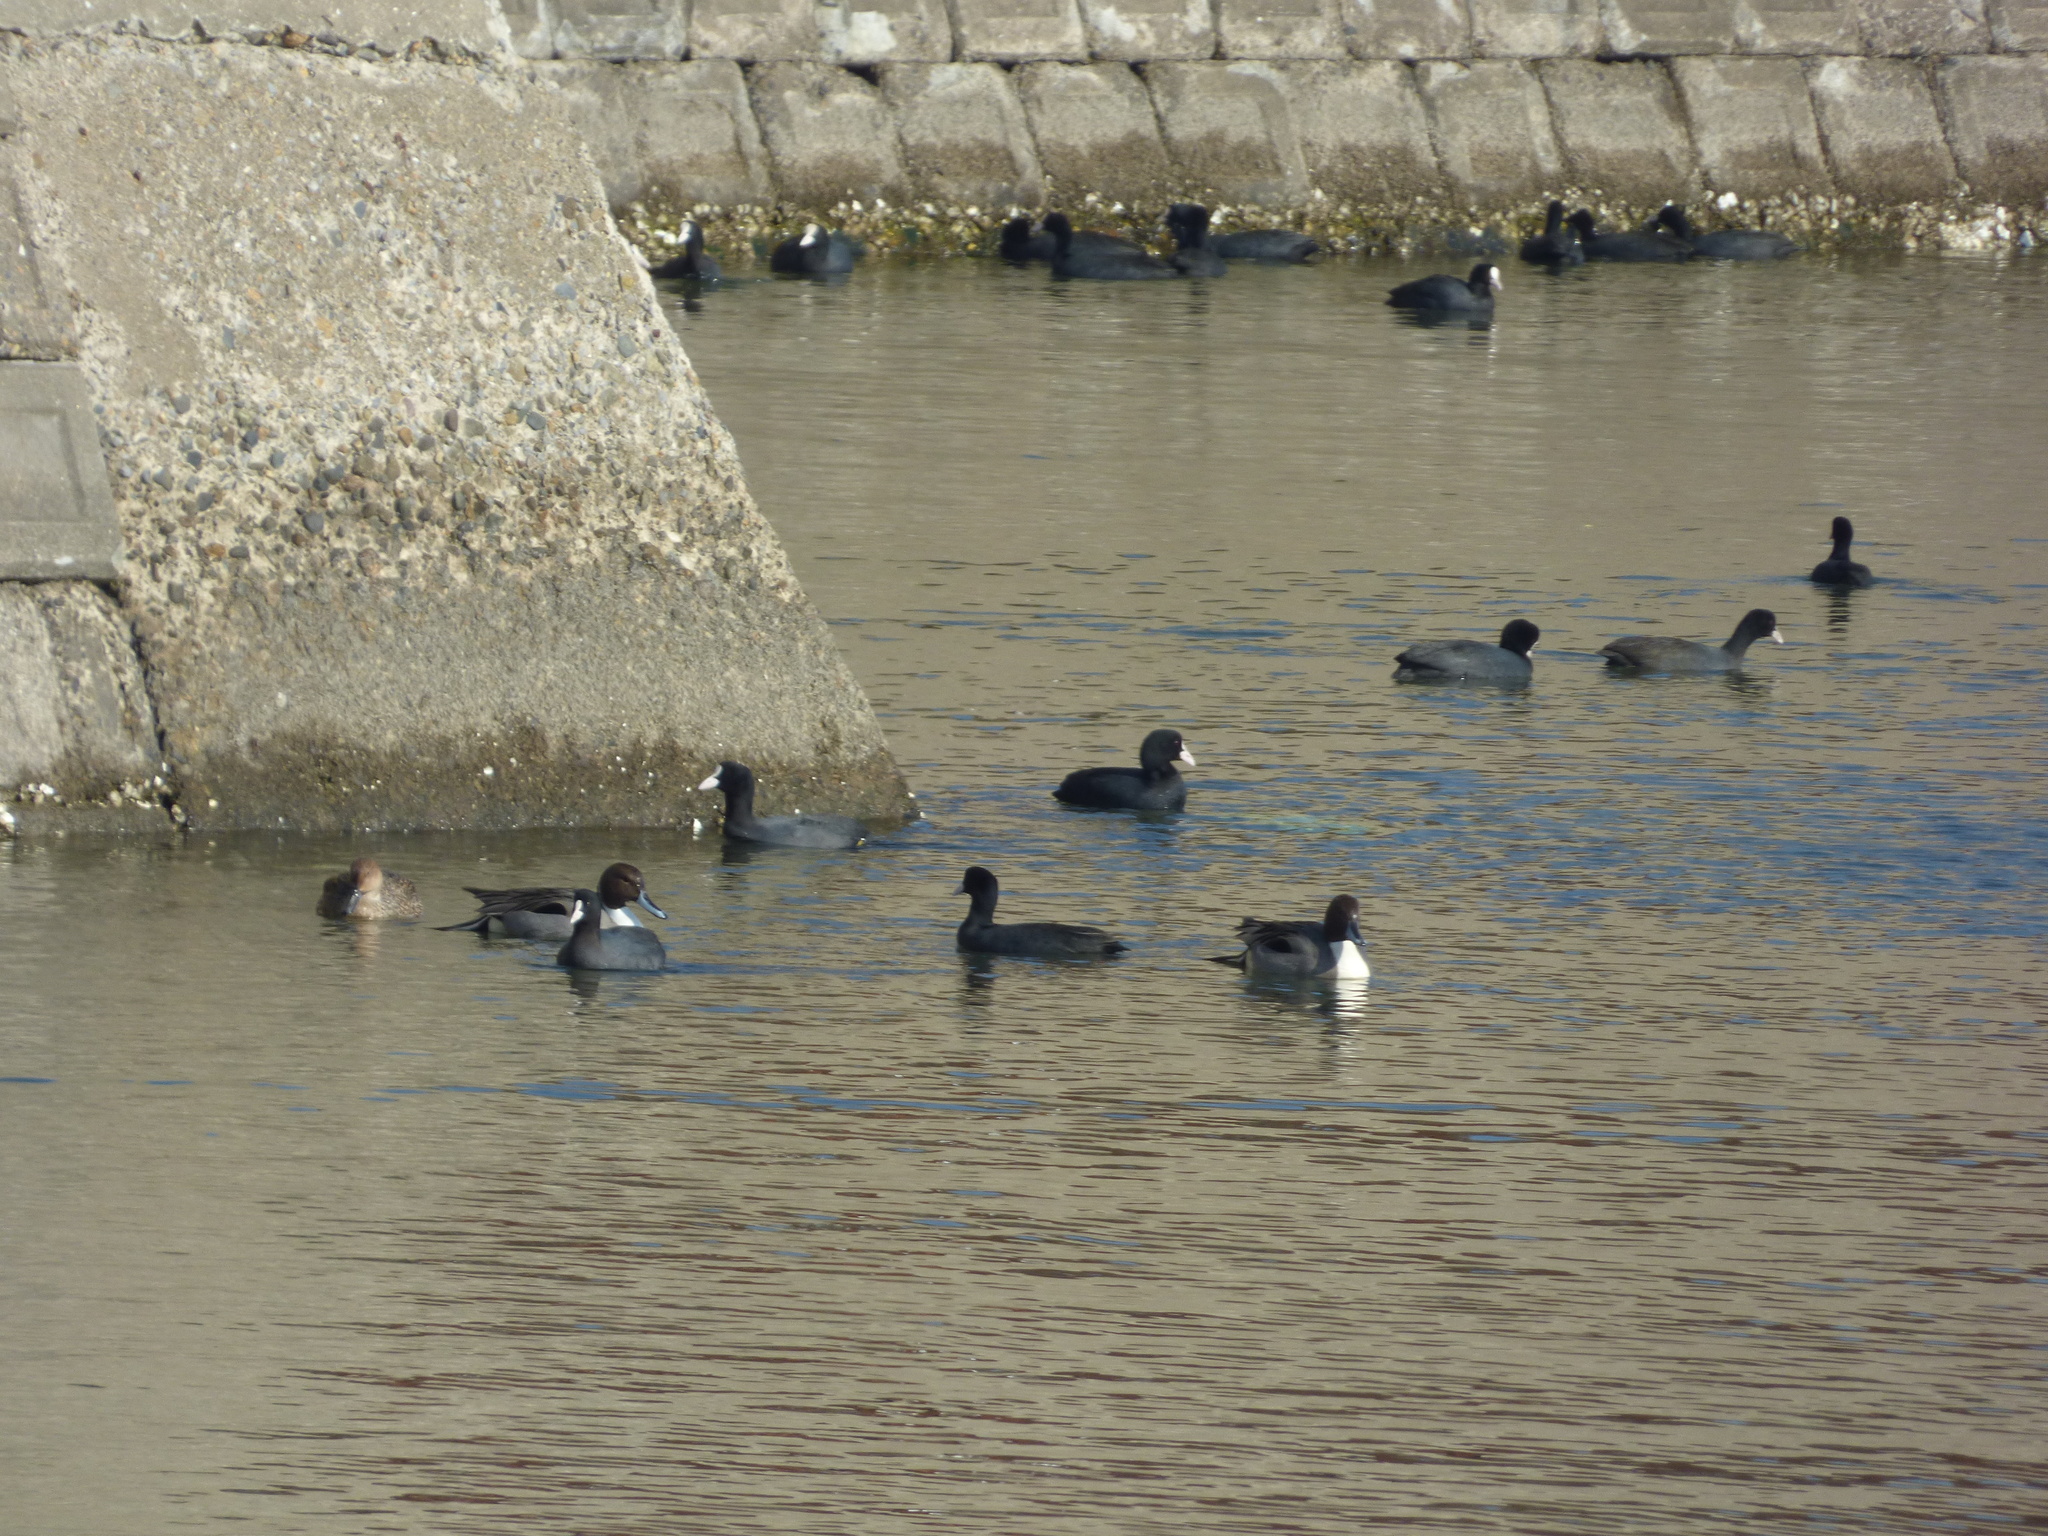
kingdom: Animalia
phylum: Chordata
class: Aves
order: Anseriformes
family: Anatidae
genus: Anas
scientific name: Anas acuta
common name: Northern pintail
